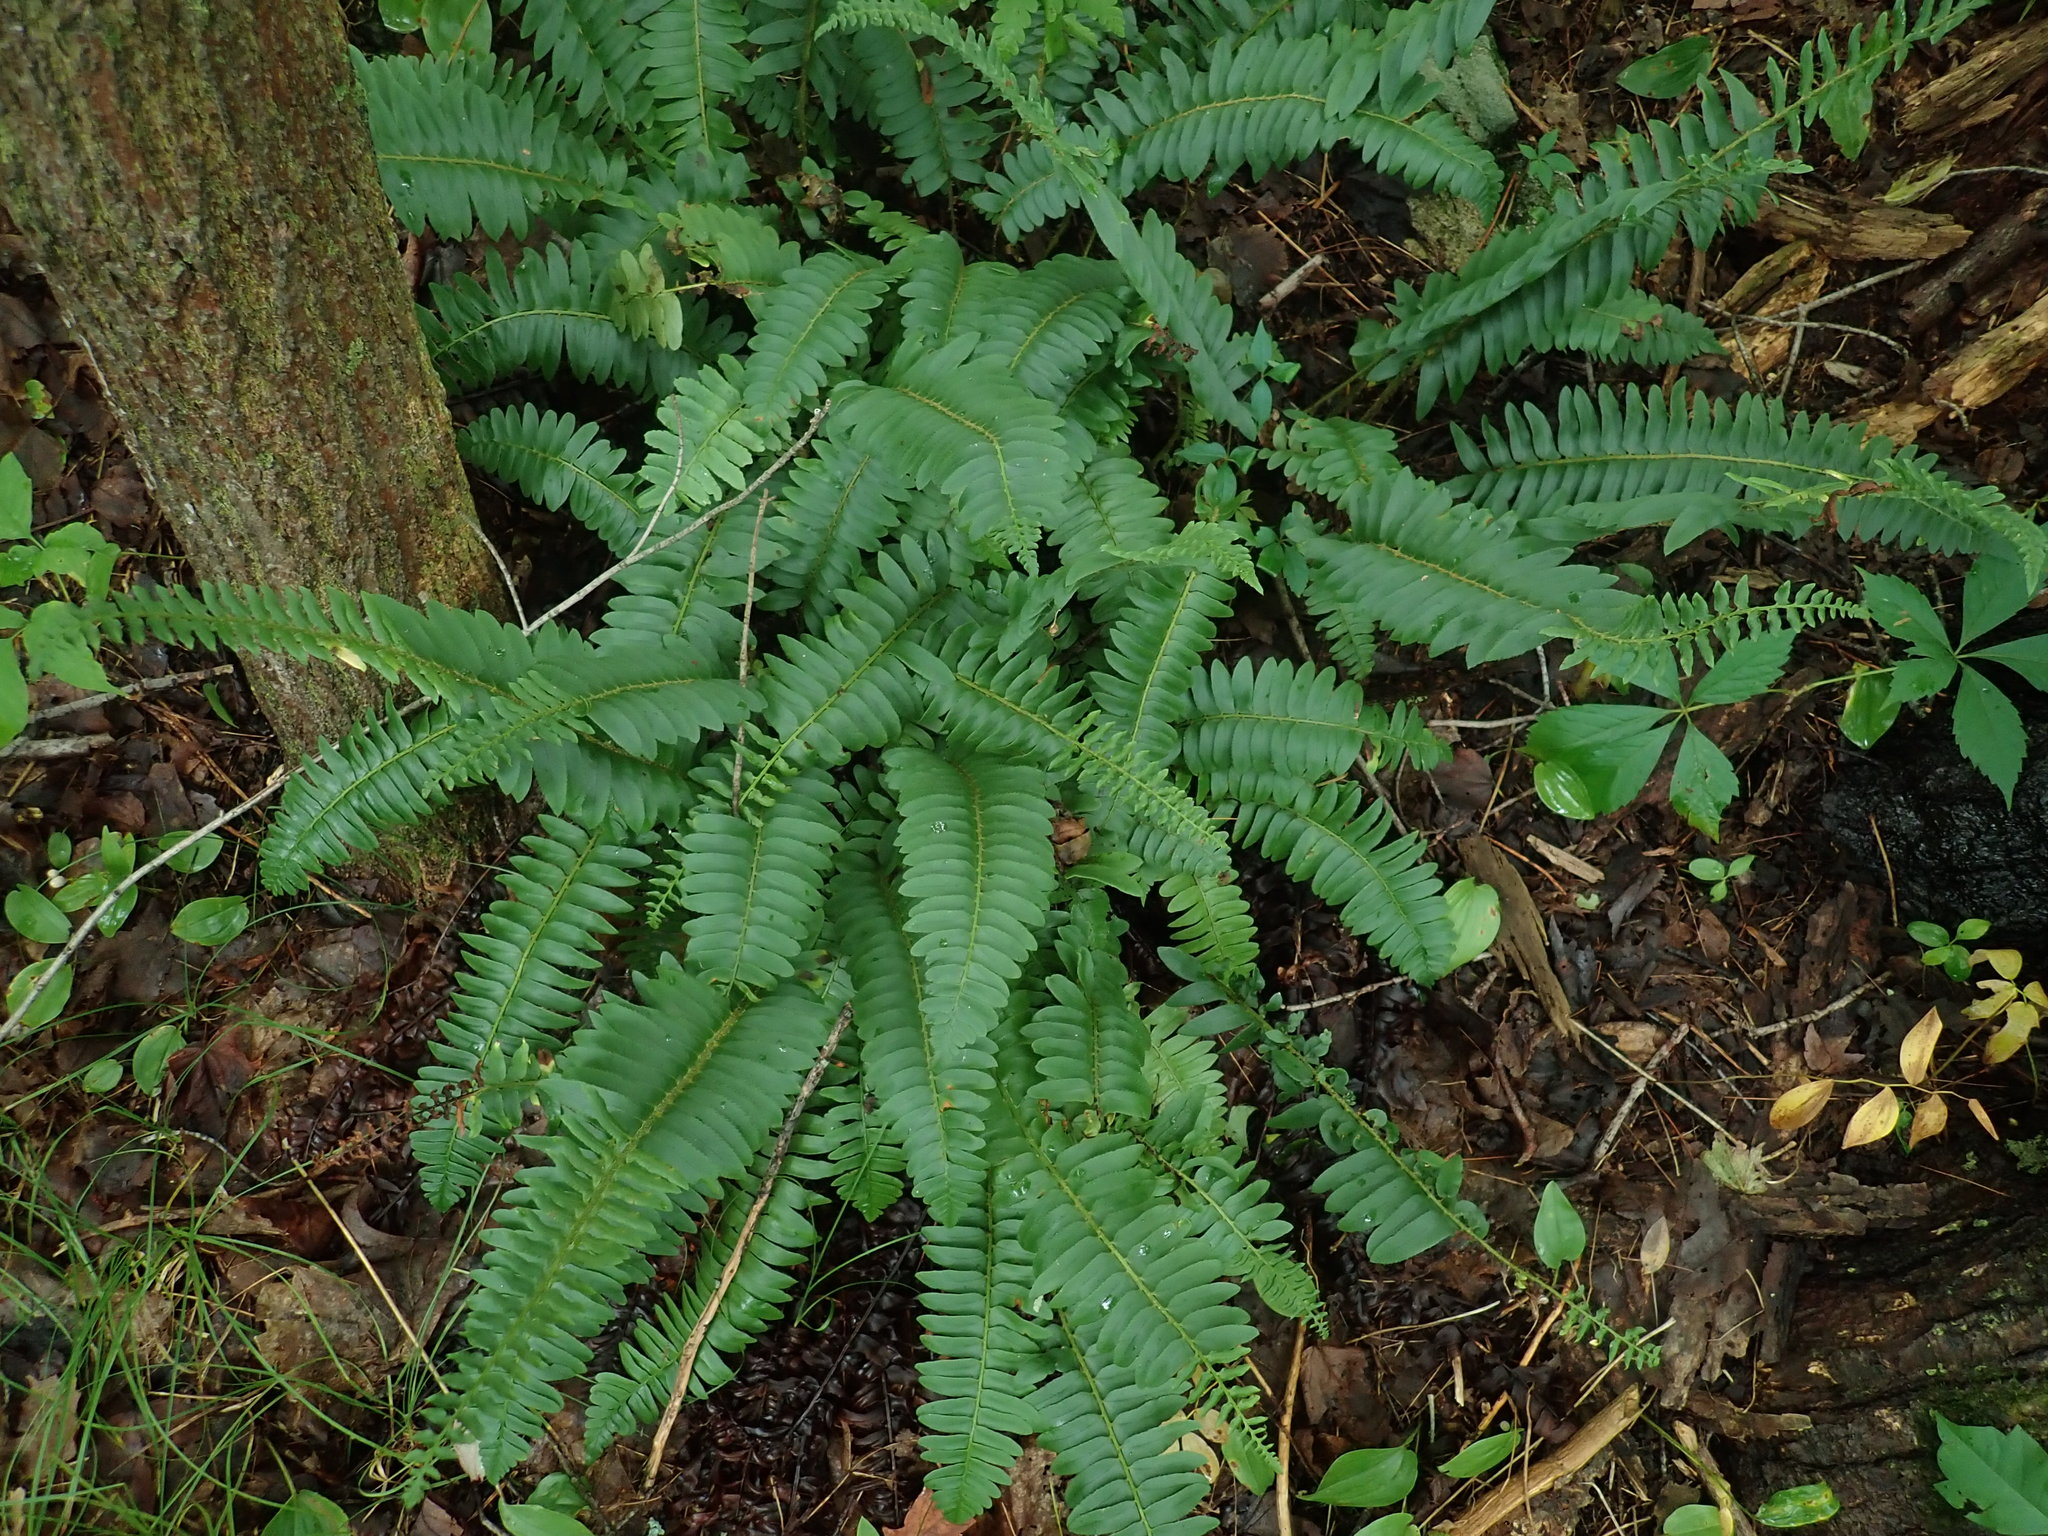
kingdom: Plantae
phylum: Tracheophyta
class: Polypodiopsida
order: Polypodiales
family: Dryopteridaceae
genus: Polystichum
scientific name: Polystichum acrostichoides
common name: Christmas fern
